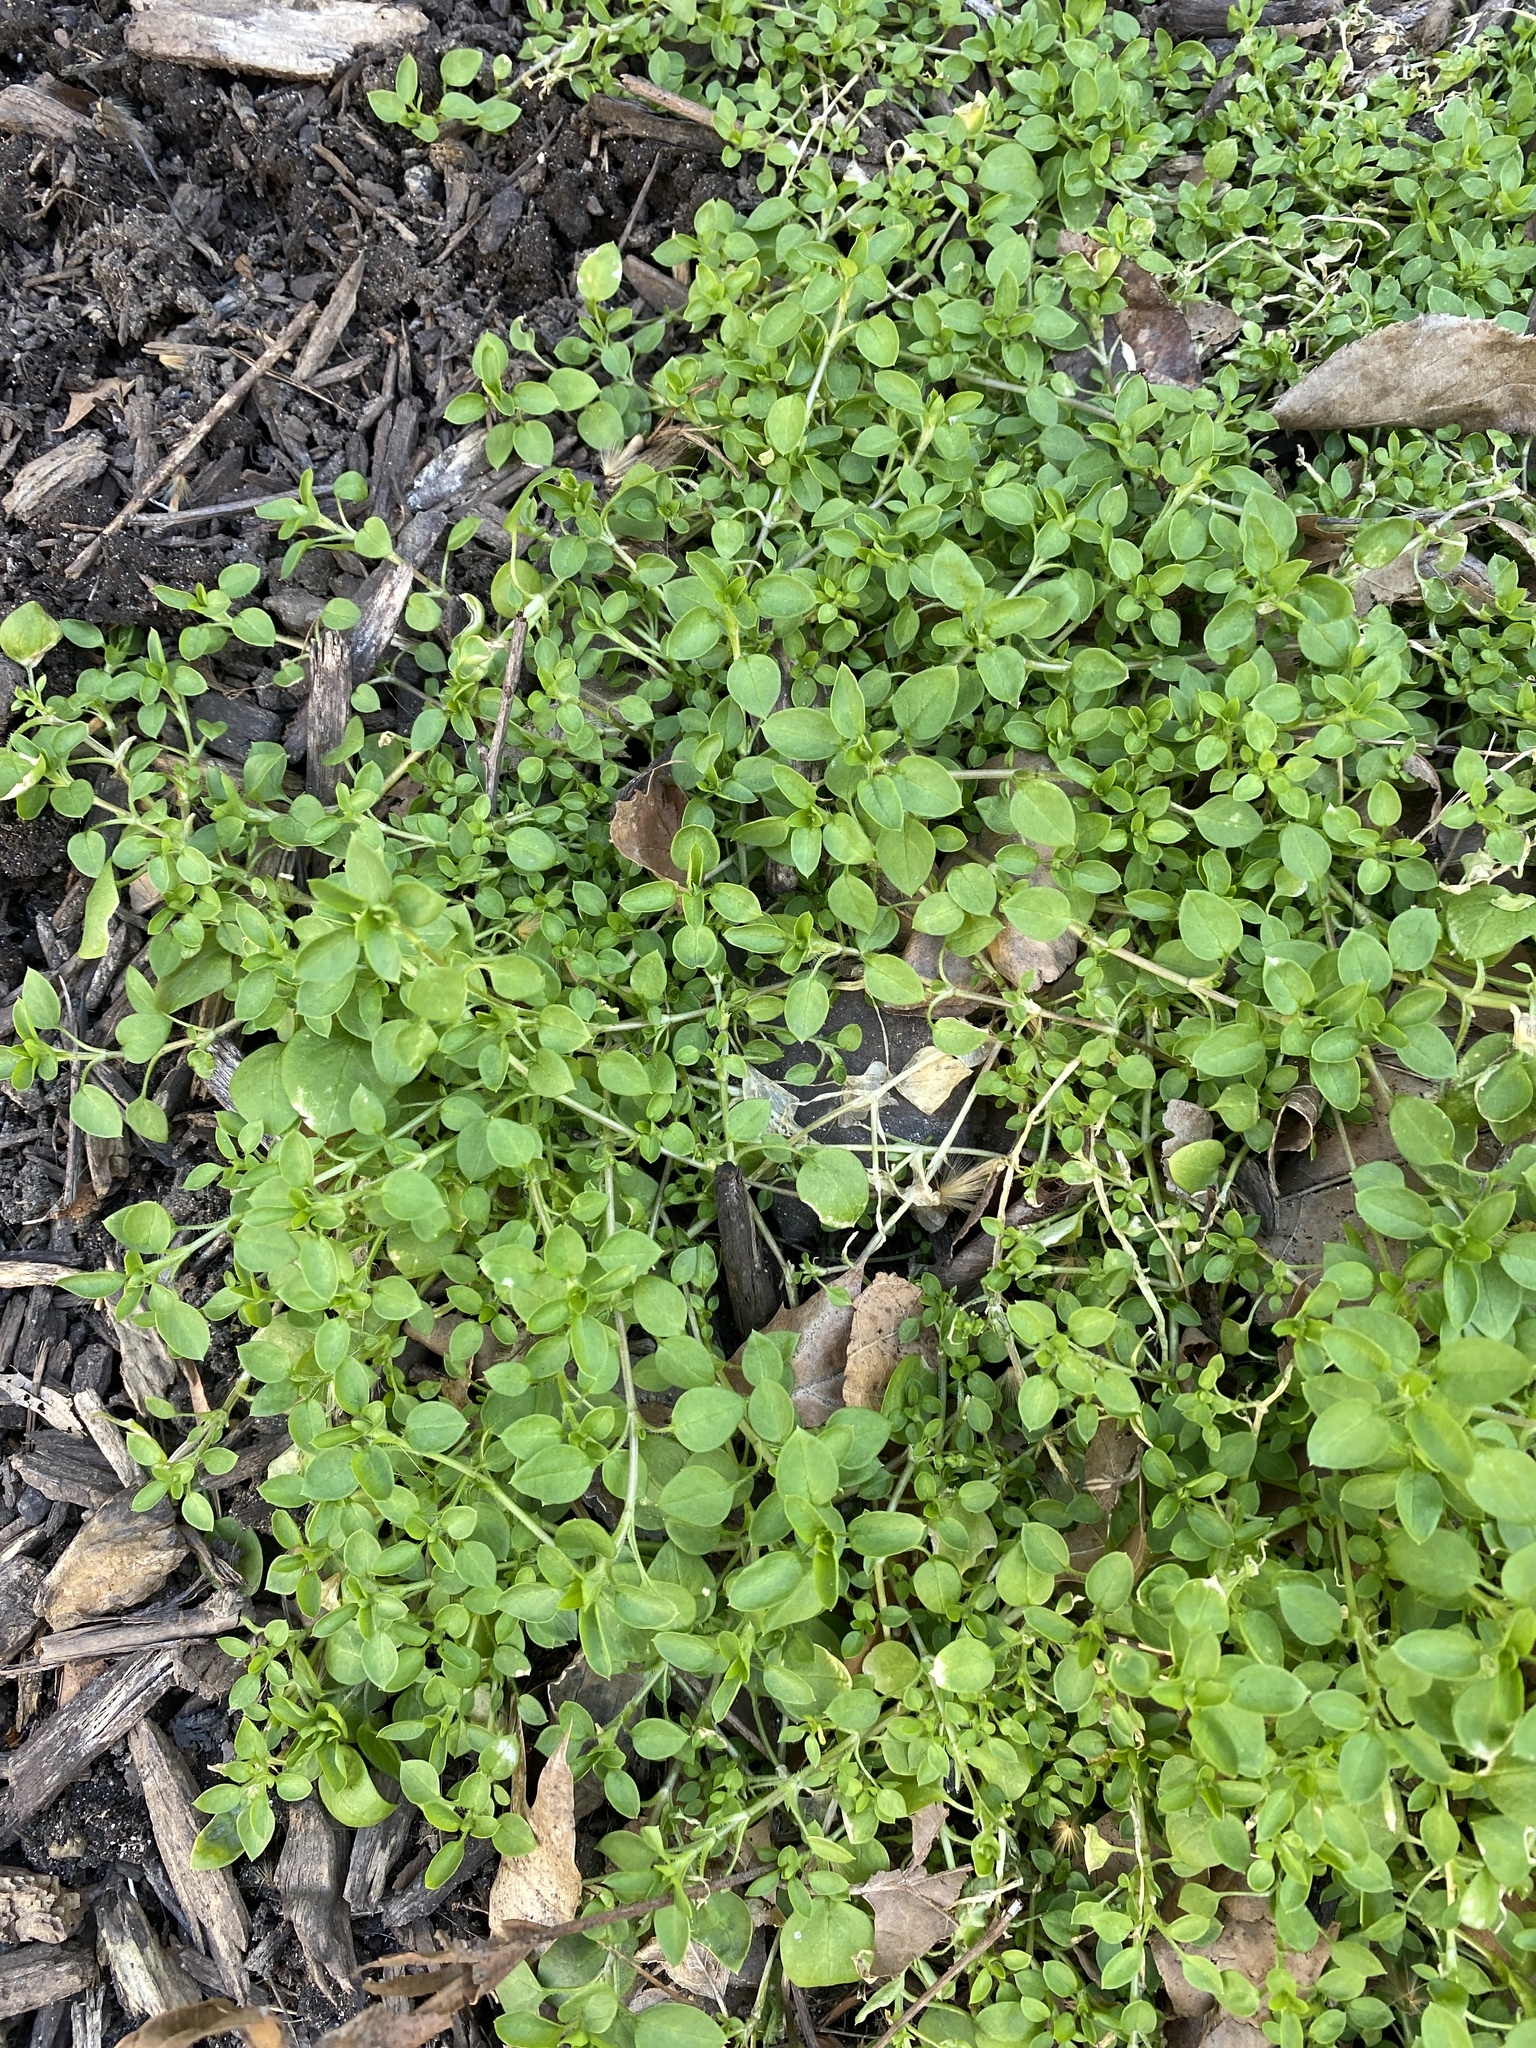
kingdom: Plantae
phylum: Tracheophyta
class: Magnoliopsida
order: Caryophyllales
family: Caryophyllaceae
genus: Stellaria
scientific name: Stellaria media
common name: Common chickweed
